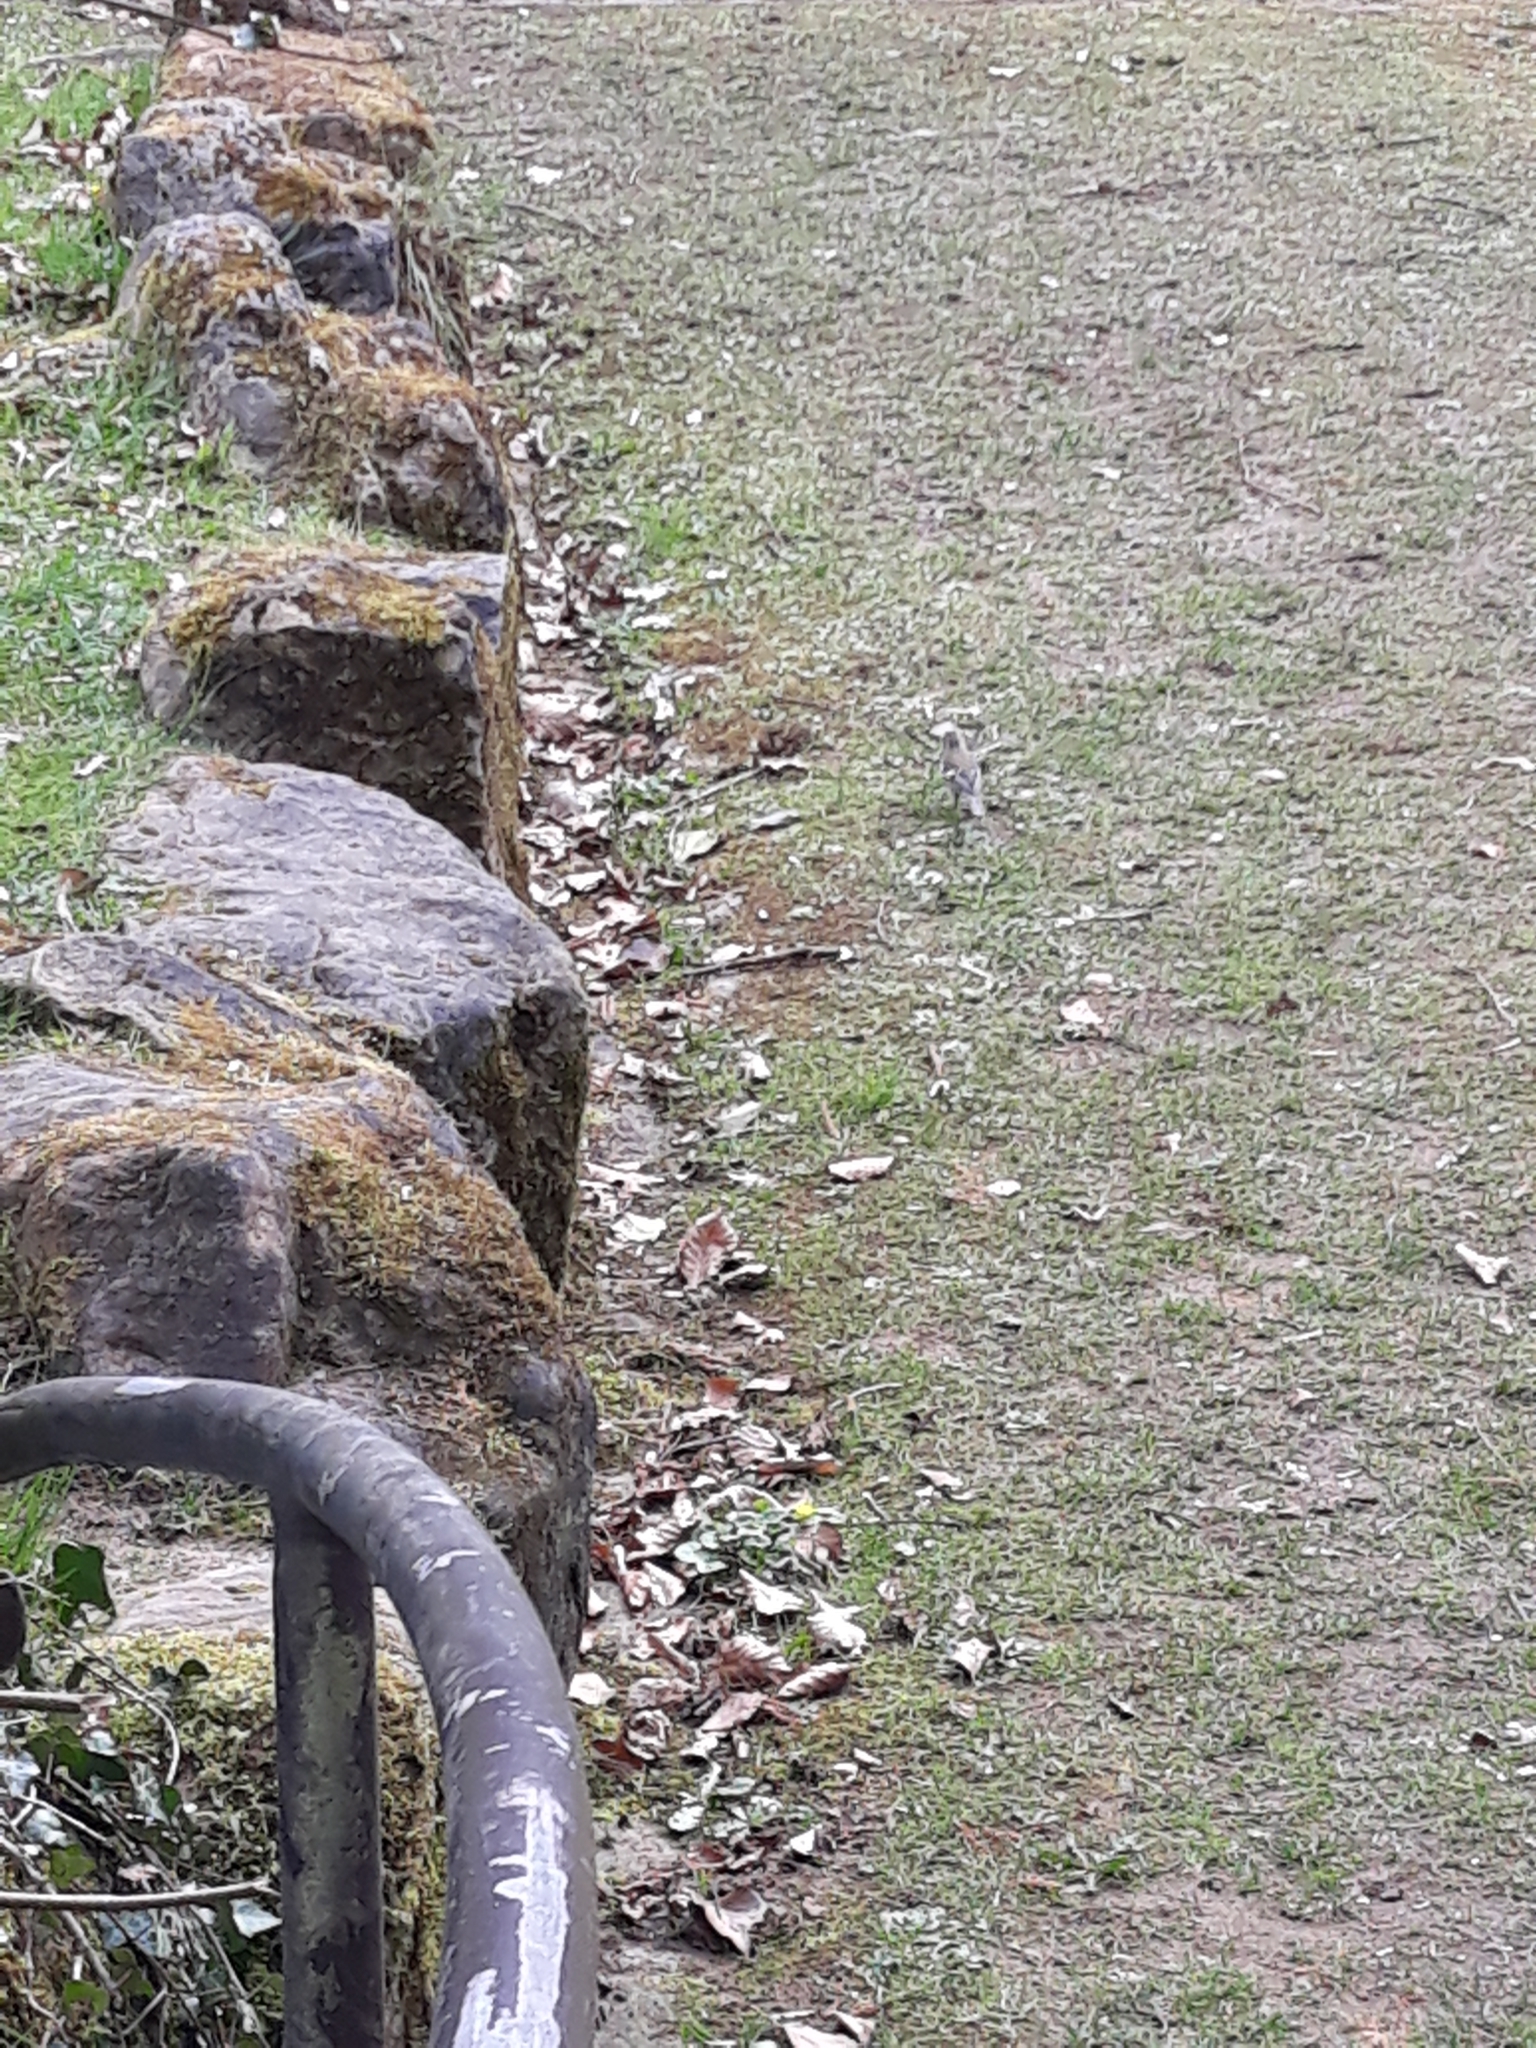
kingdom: Animalia
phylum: Chordata
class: Aves
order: Passeriformes
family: Fringillidae
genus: Fringilla
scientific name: Fringilla coelebs
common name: Common chaffinch
